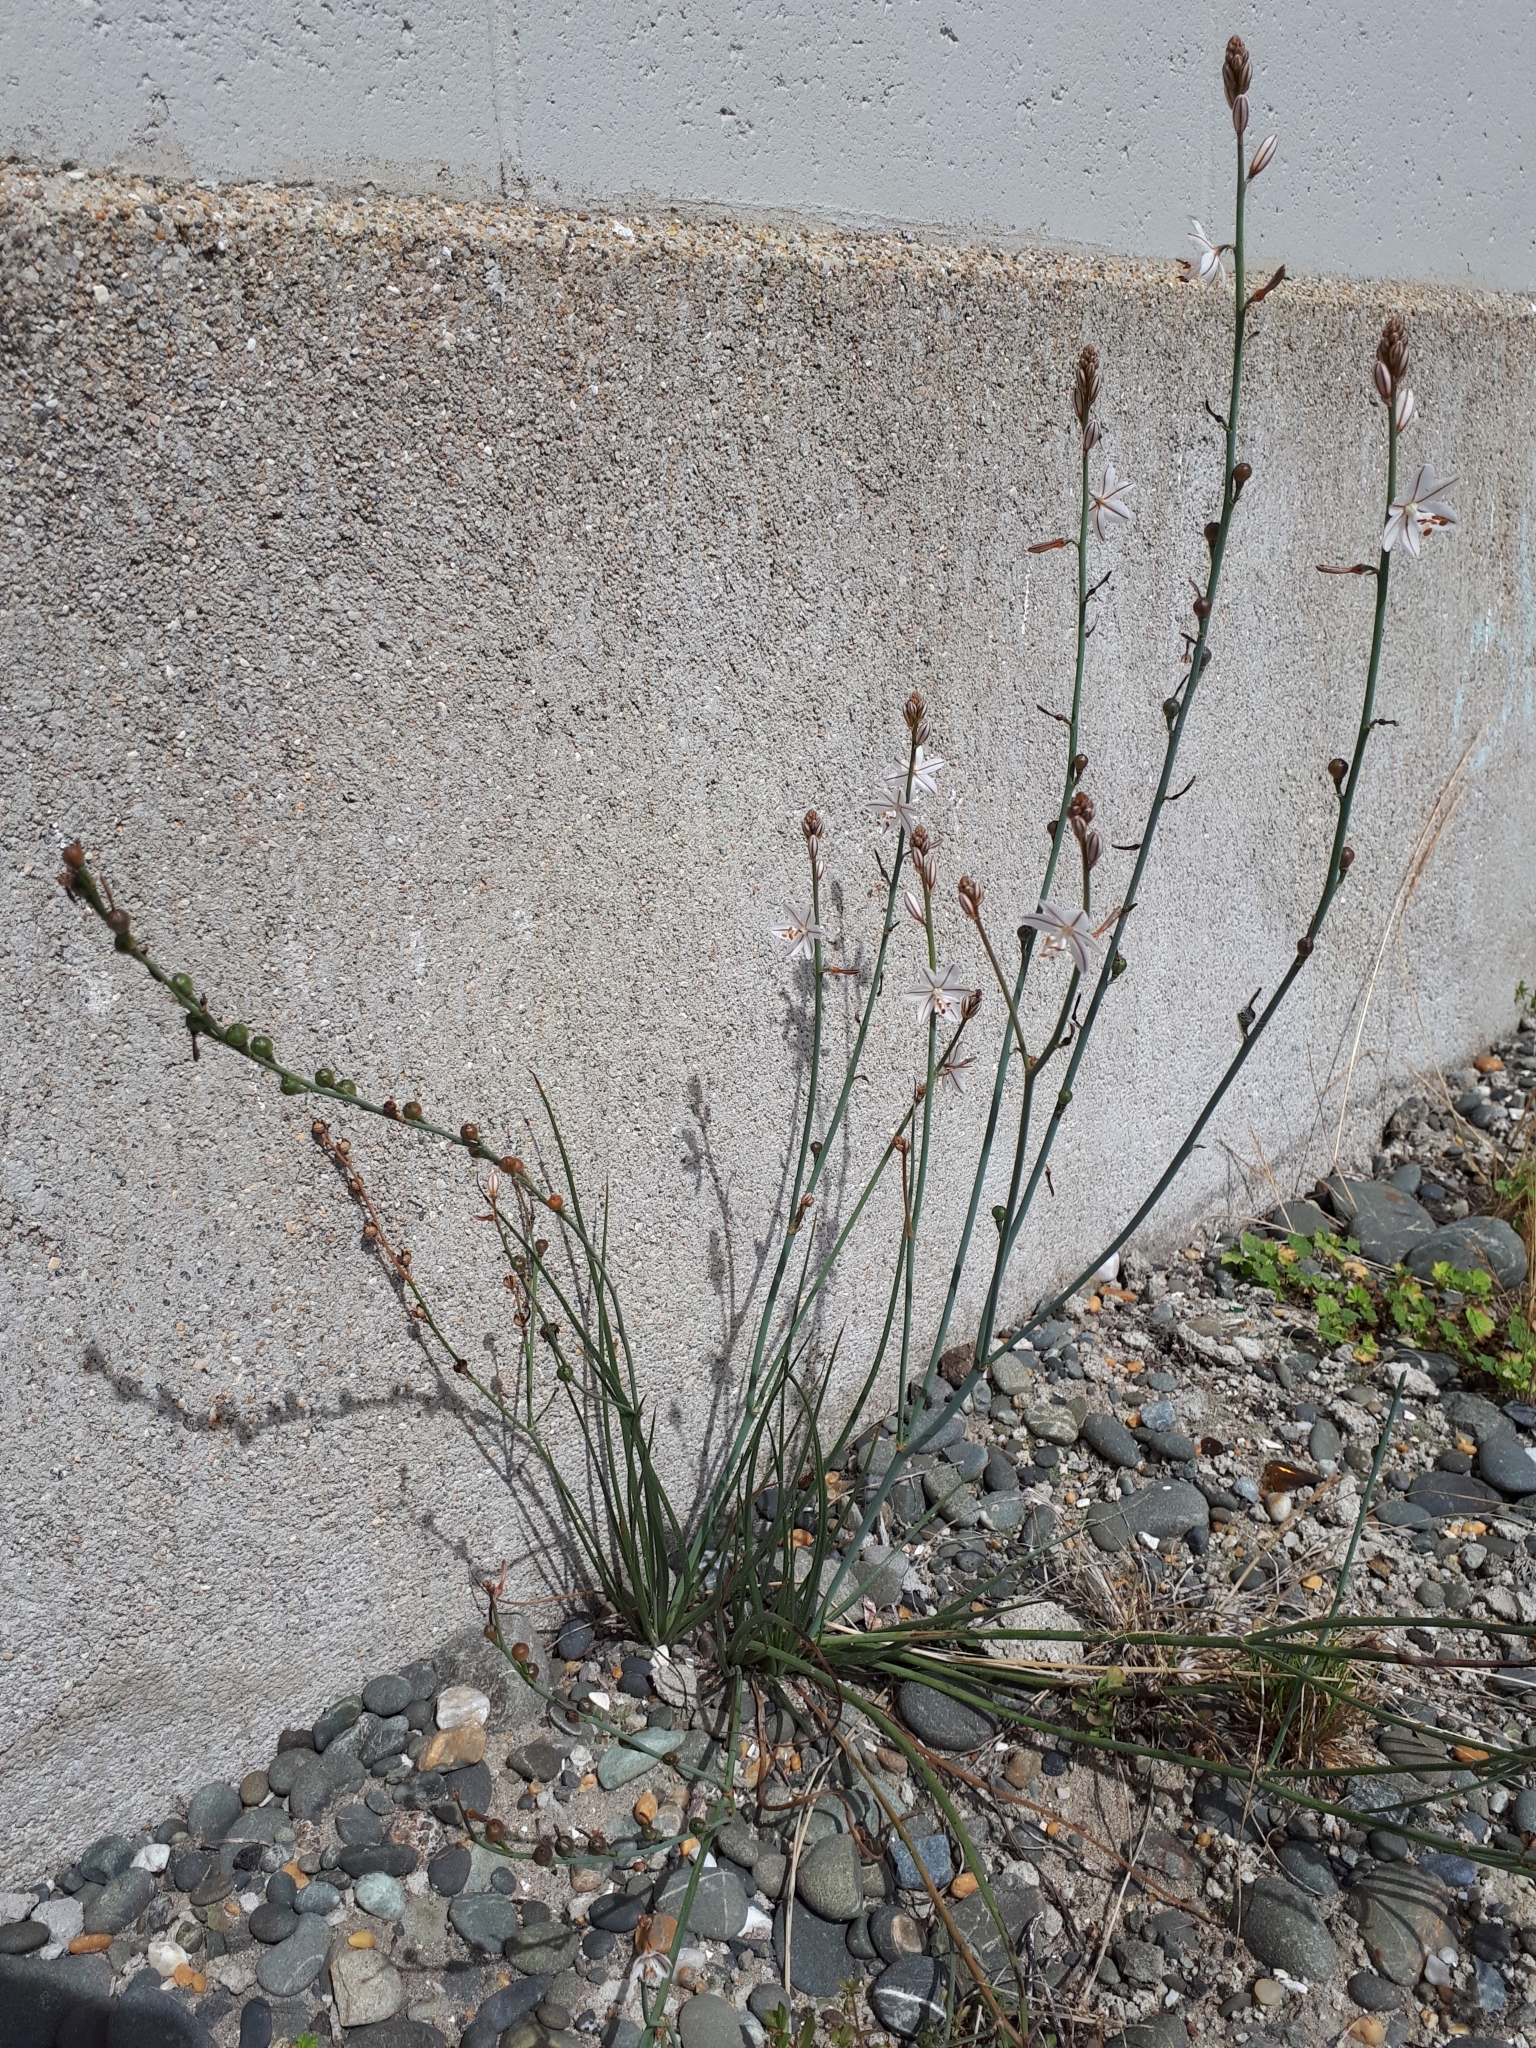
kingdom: Plantae
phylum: Tracheophyta
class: Liliopsida
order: Asparagales
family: Asphodelaceae
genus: Asphodelus
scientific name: Asphodelus fistulosus
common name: Onionweed
